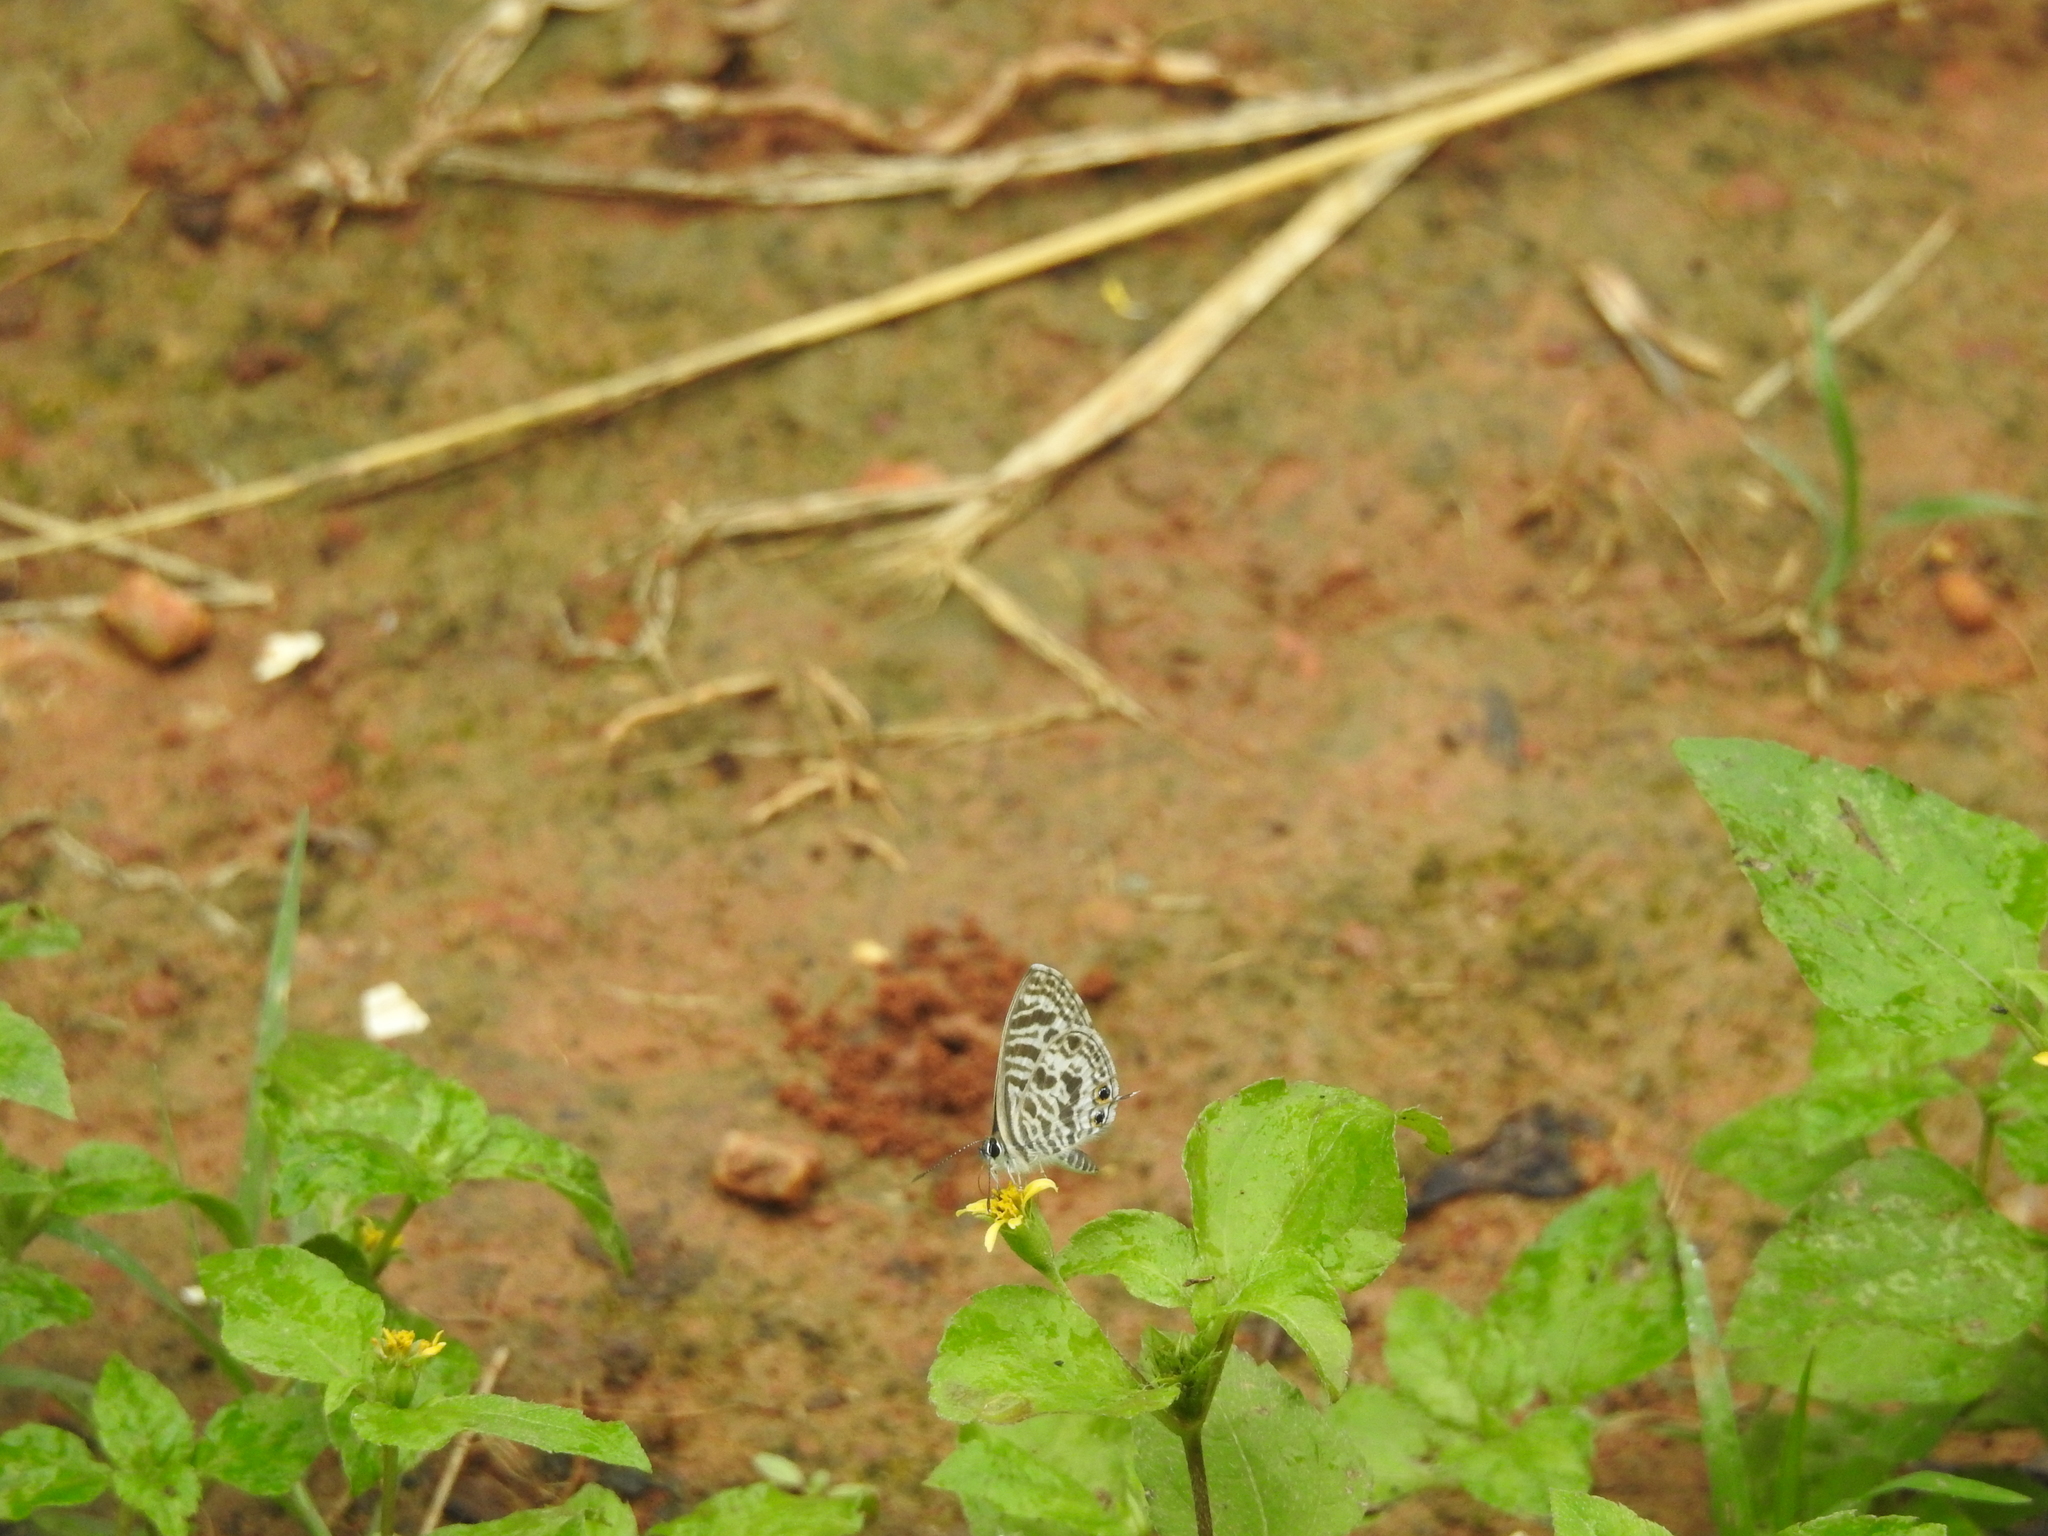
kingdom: Animalia
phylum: Arthropoda
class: Insecta
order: Lepidoptera
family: Lycaenidae
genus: Leptotes
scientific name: Leptotes plinius
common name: Zebra blue
